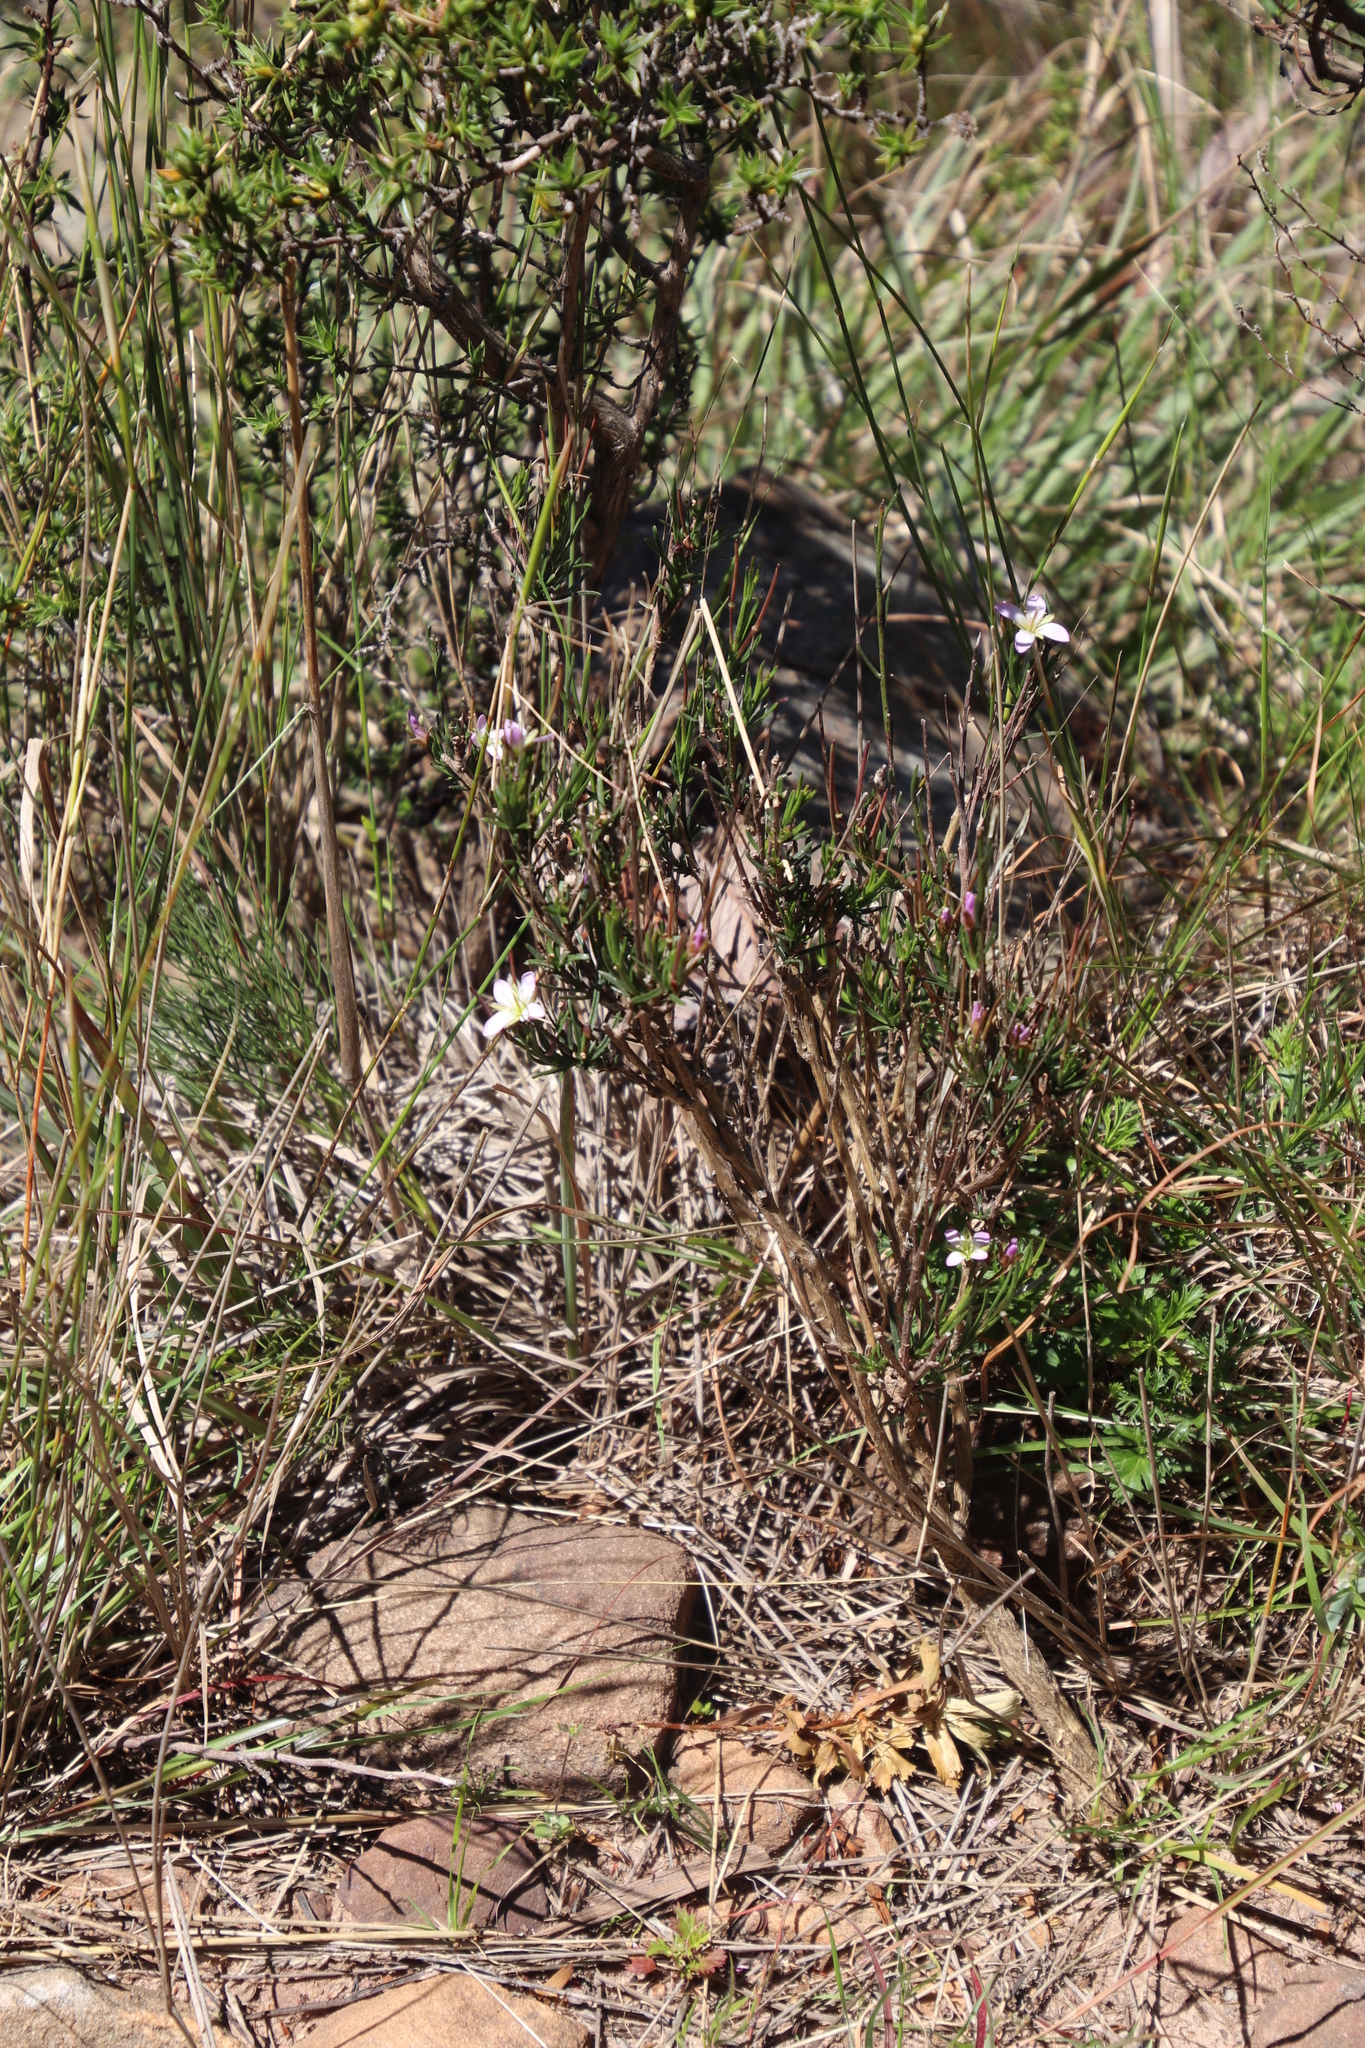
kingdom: Plantae
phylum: Tracheophyta
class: Magnoliopsida
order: Brassicales
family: Brassicaceae
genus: Heliophila
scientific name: Heliophila scoparia
